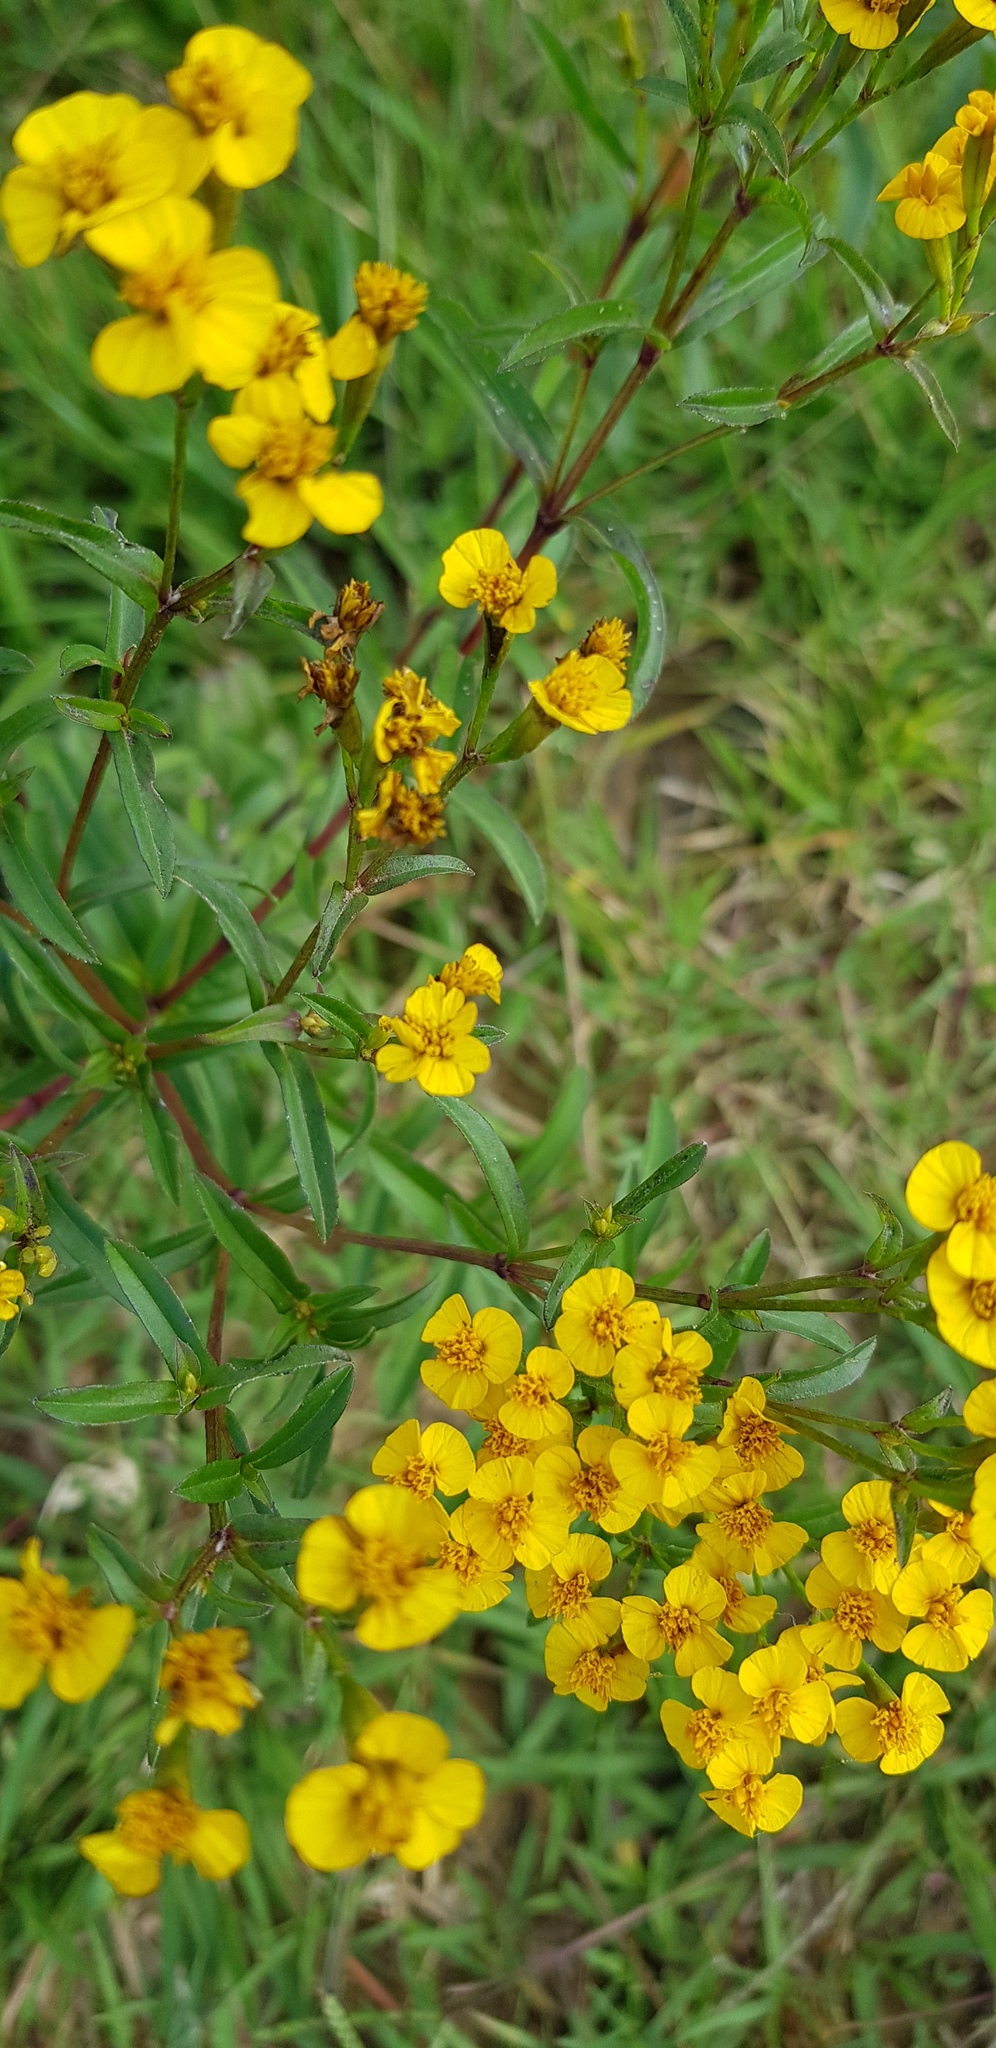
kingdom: Plantae
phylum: Tracheophyta
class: Magnoliopsida
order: Asterales
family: Asteraceae
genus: Tagetes
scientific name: Tagetes lucida
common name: Sweetscented marigold
